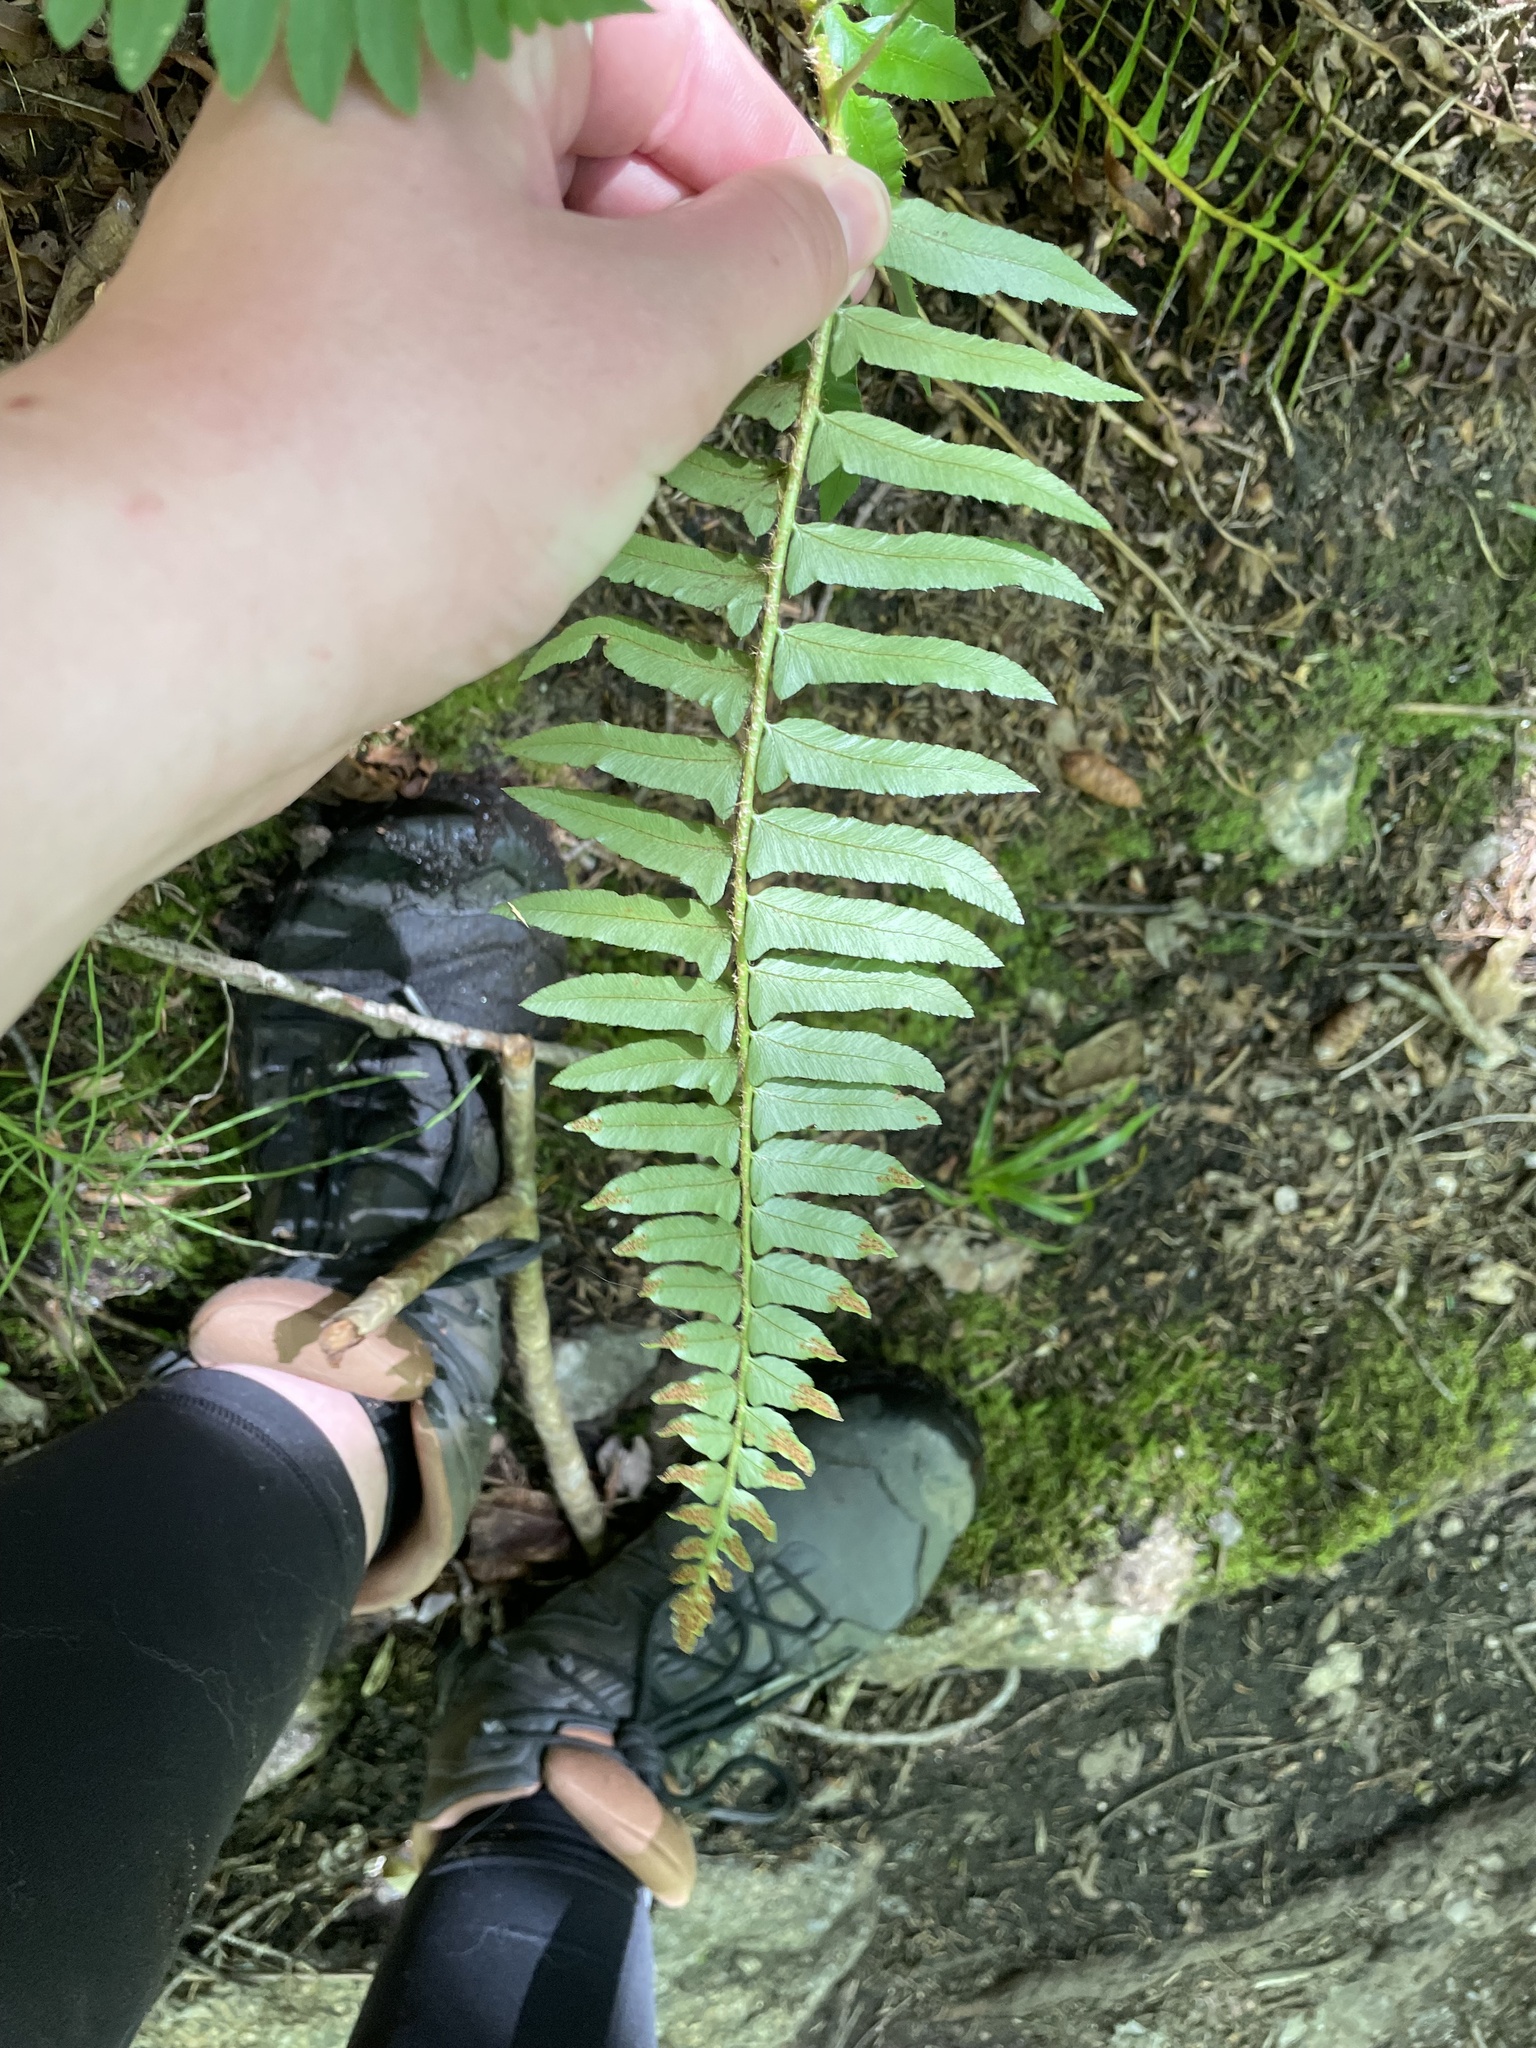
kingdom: Plantae
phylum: Tracheophyta
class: Polypodiopsida
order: Polypodiales
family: Dryopteridaceae
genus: Polystichum
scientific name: Polystichum acrostichoides
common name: Christmas fern
